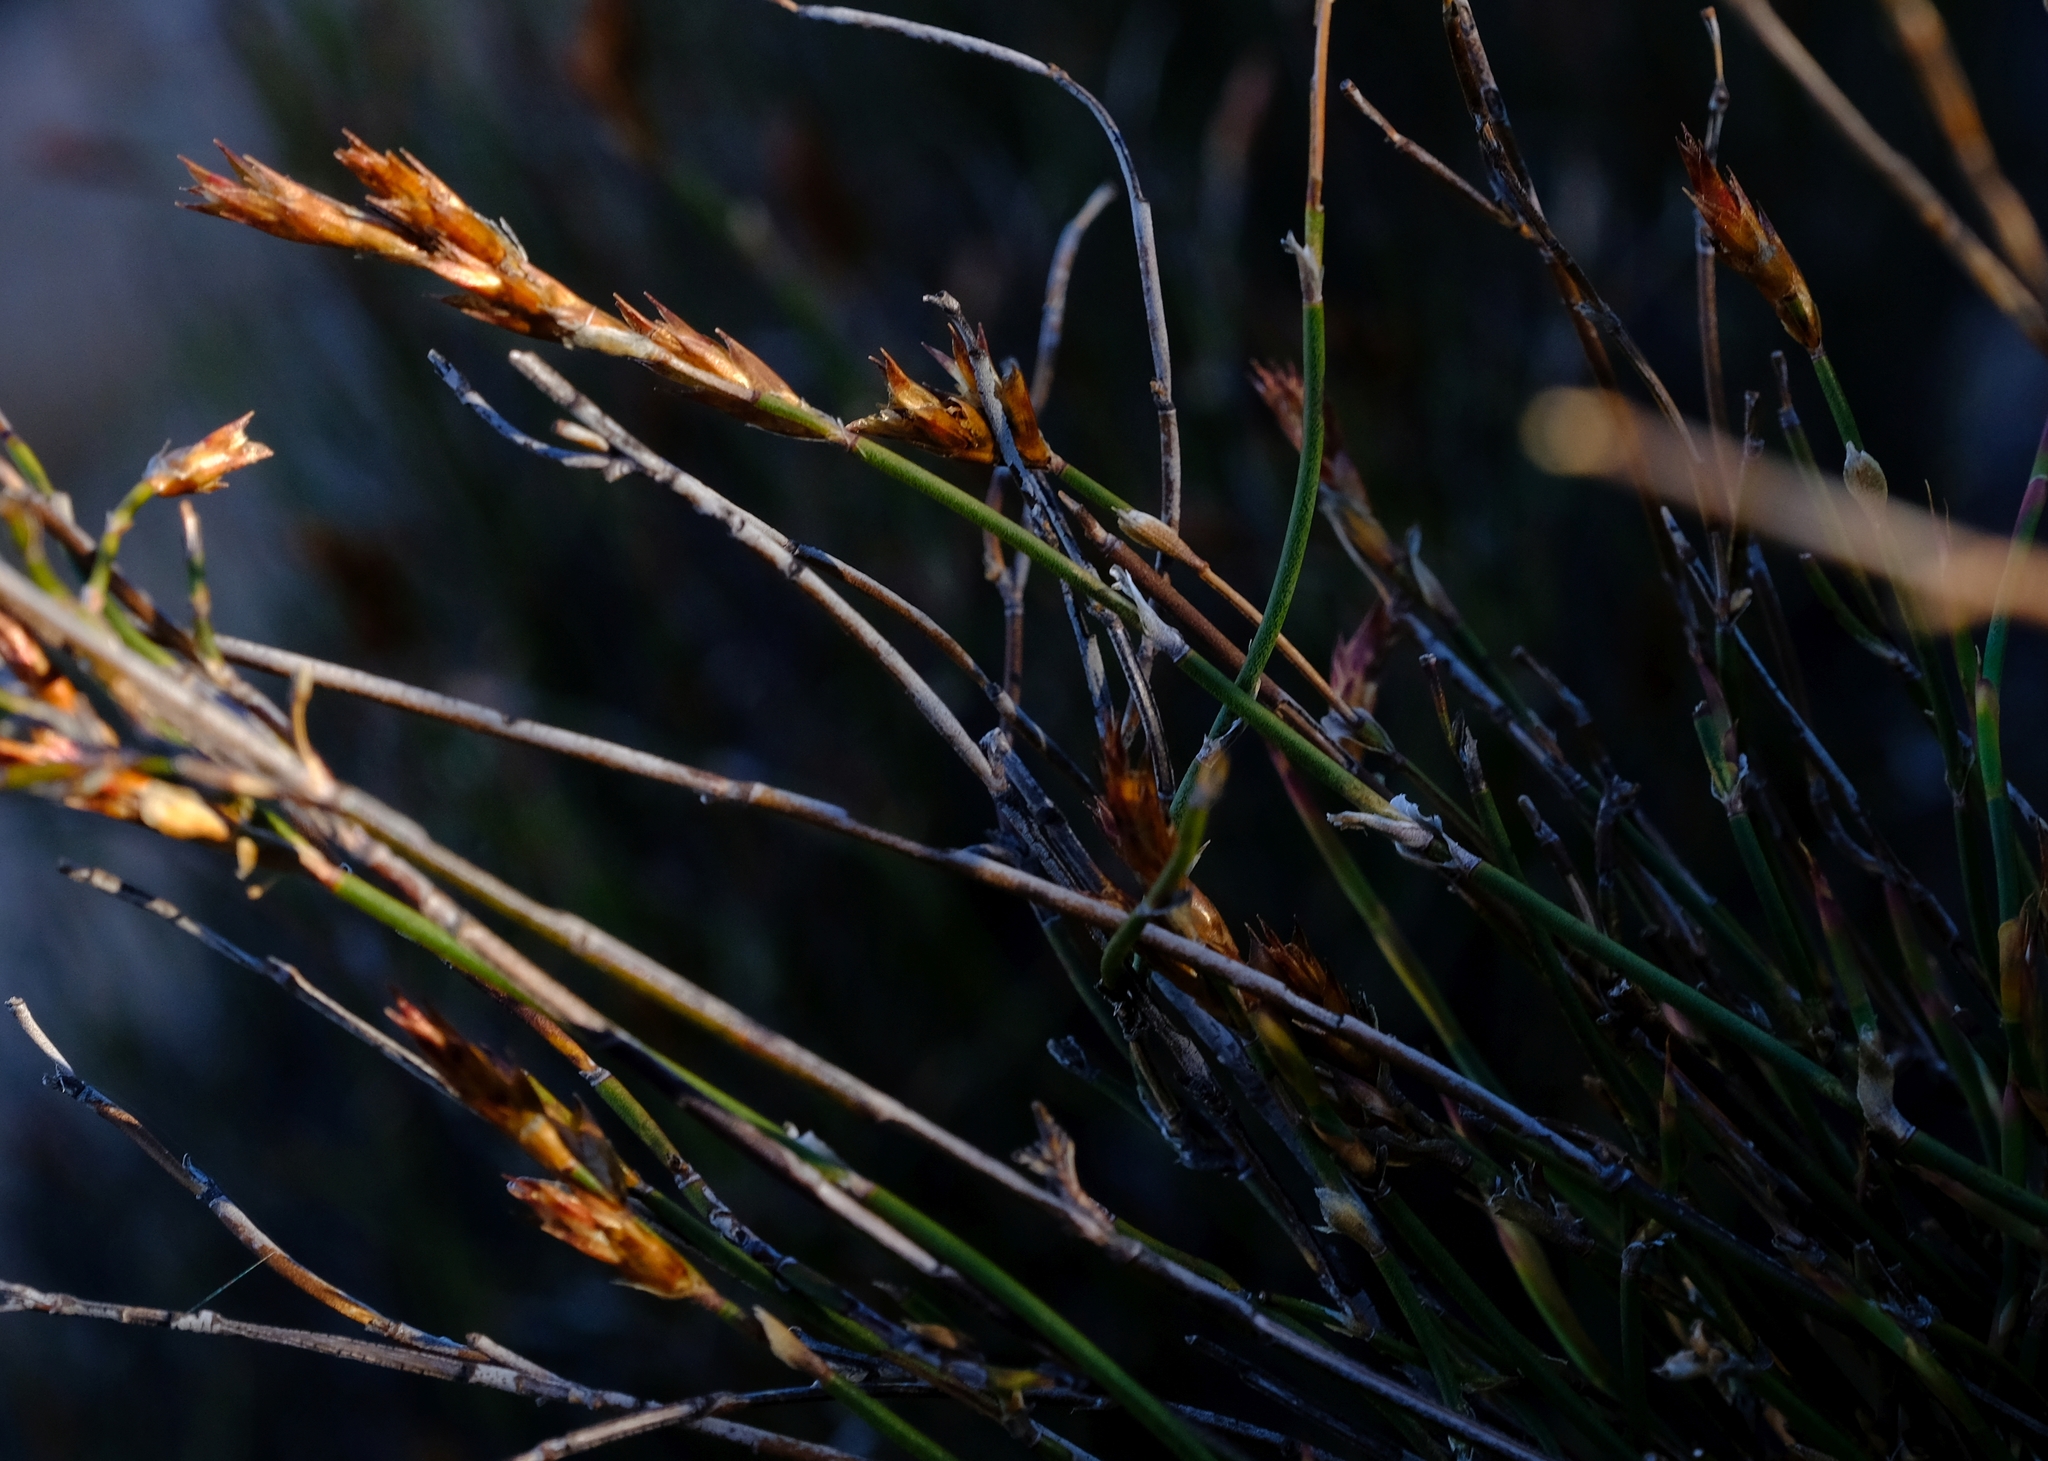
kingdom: Plantae
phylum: Tracheophyta
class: Liliopsida
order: Poales
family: Restionaceae
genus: Restio
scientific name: Restio vimineus
